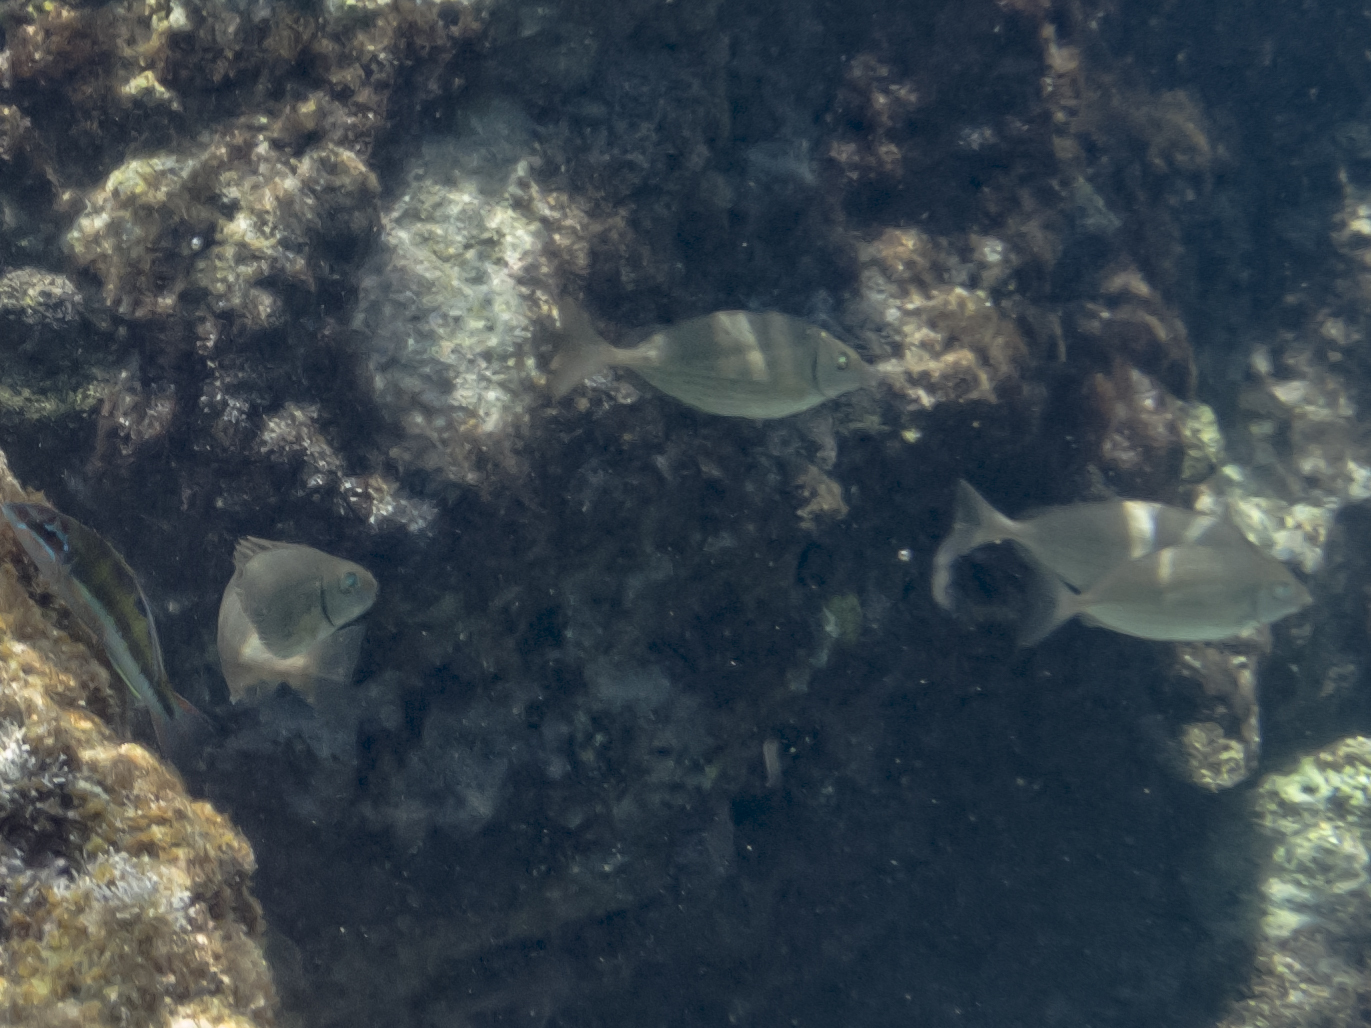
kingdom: Animalia
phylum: Chordata
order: Perciformes
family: Siganidae
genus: Siganus
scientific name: Siganus rivulatus
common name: Marbled spinefoot
